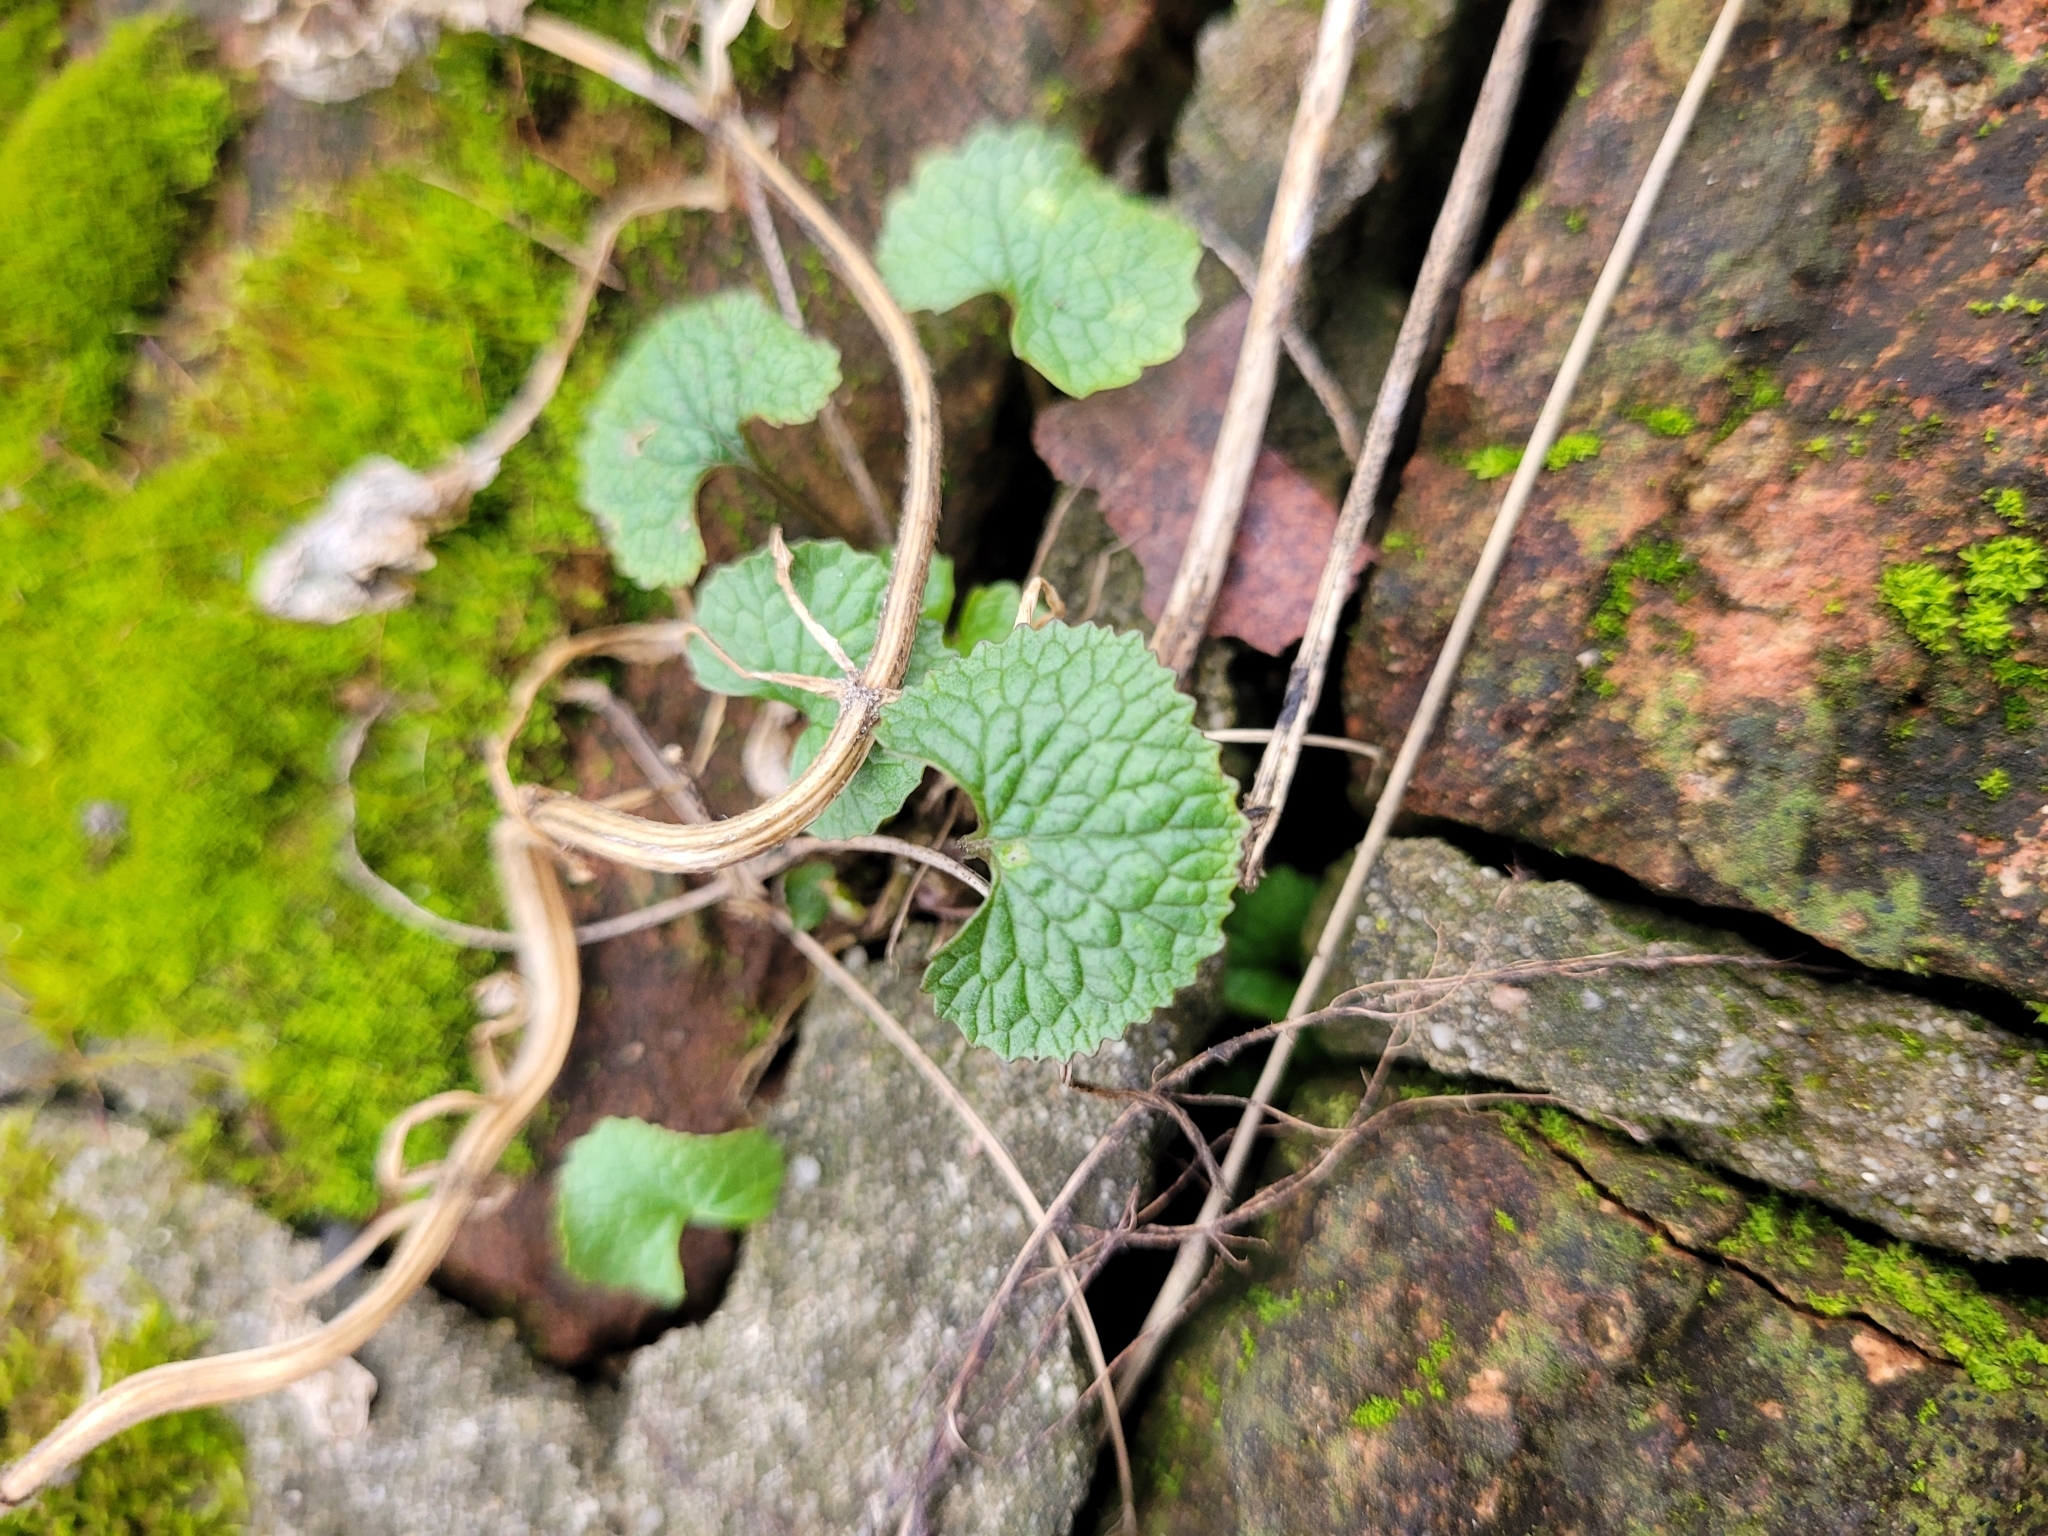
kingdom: Plantae
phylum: Tracheophyta
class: Magnoliopsida
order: Brassicales
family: Brassicaceae
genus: Alliaria
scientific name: Alliaria petiolata
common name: Garlic mustard
